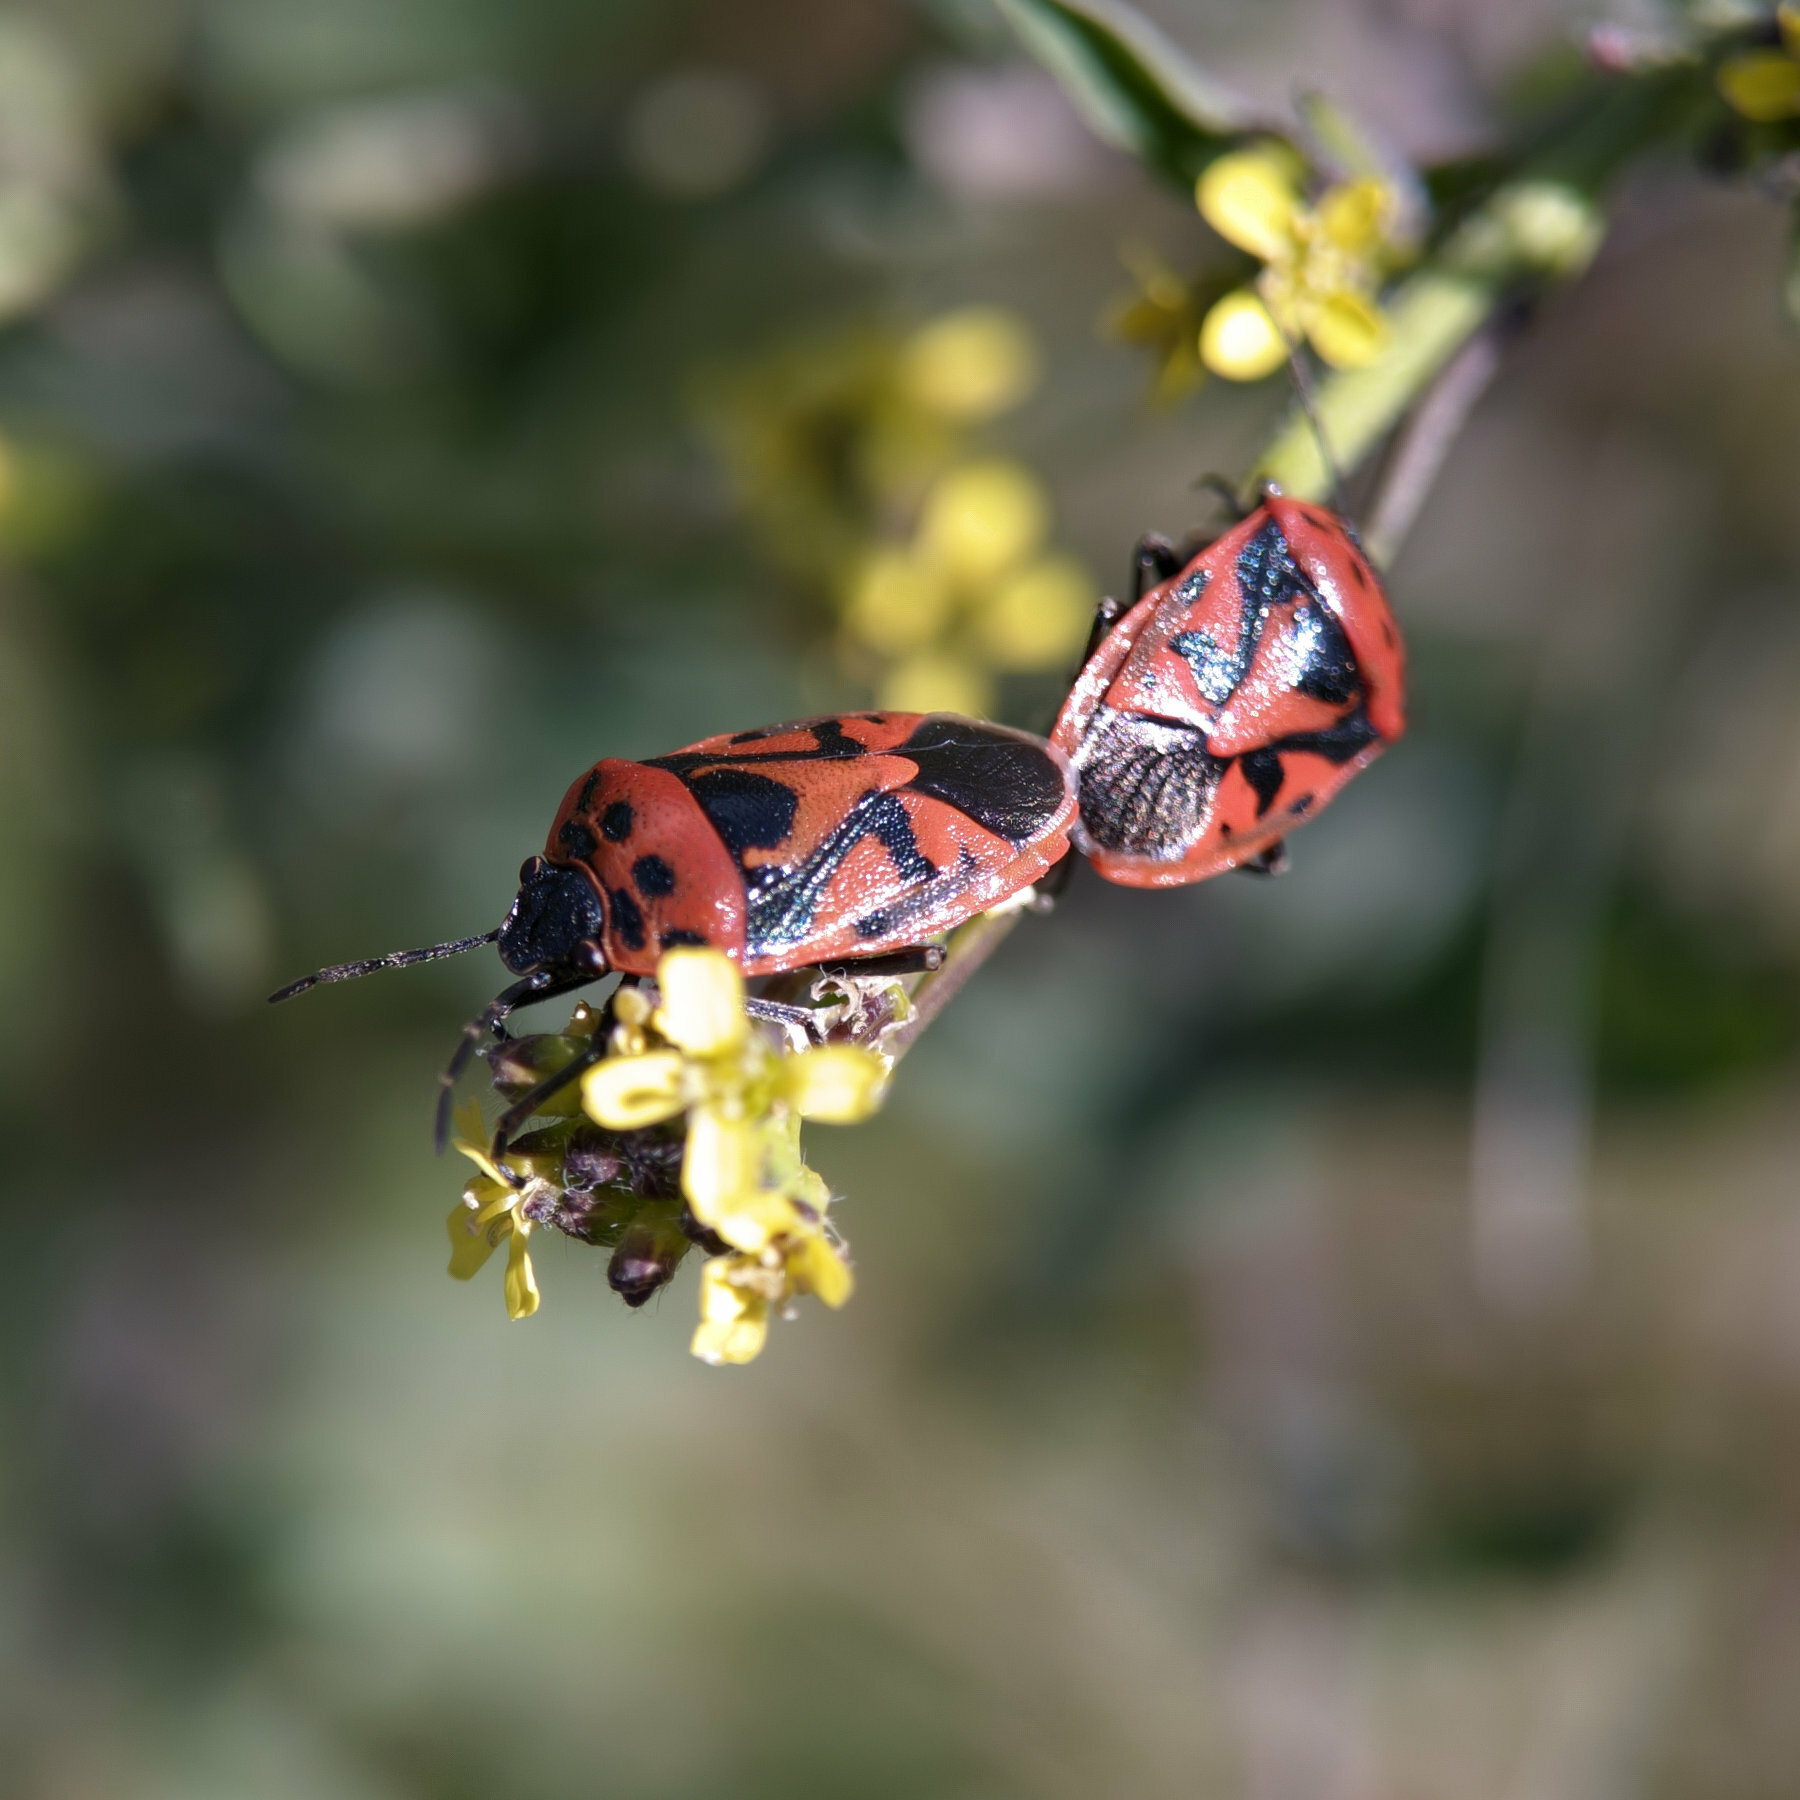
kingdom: Animalia
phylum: Arthropoda
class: Insecta
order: Hemiptera
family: Pentatomidae
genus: Eurydema
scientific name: Eurydema ornata
